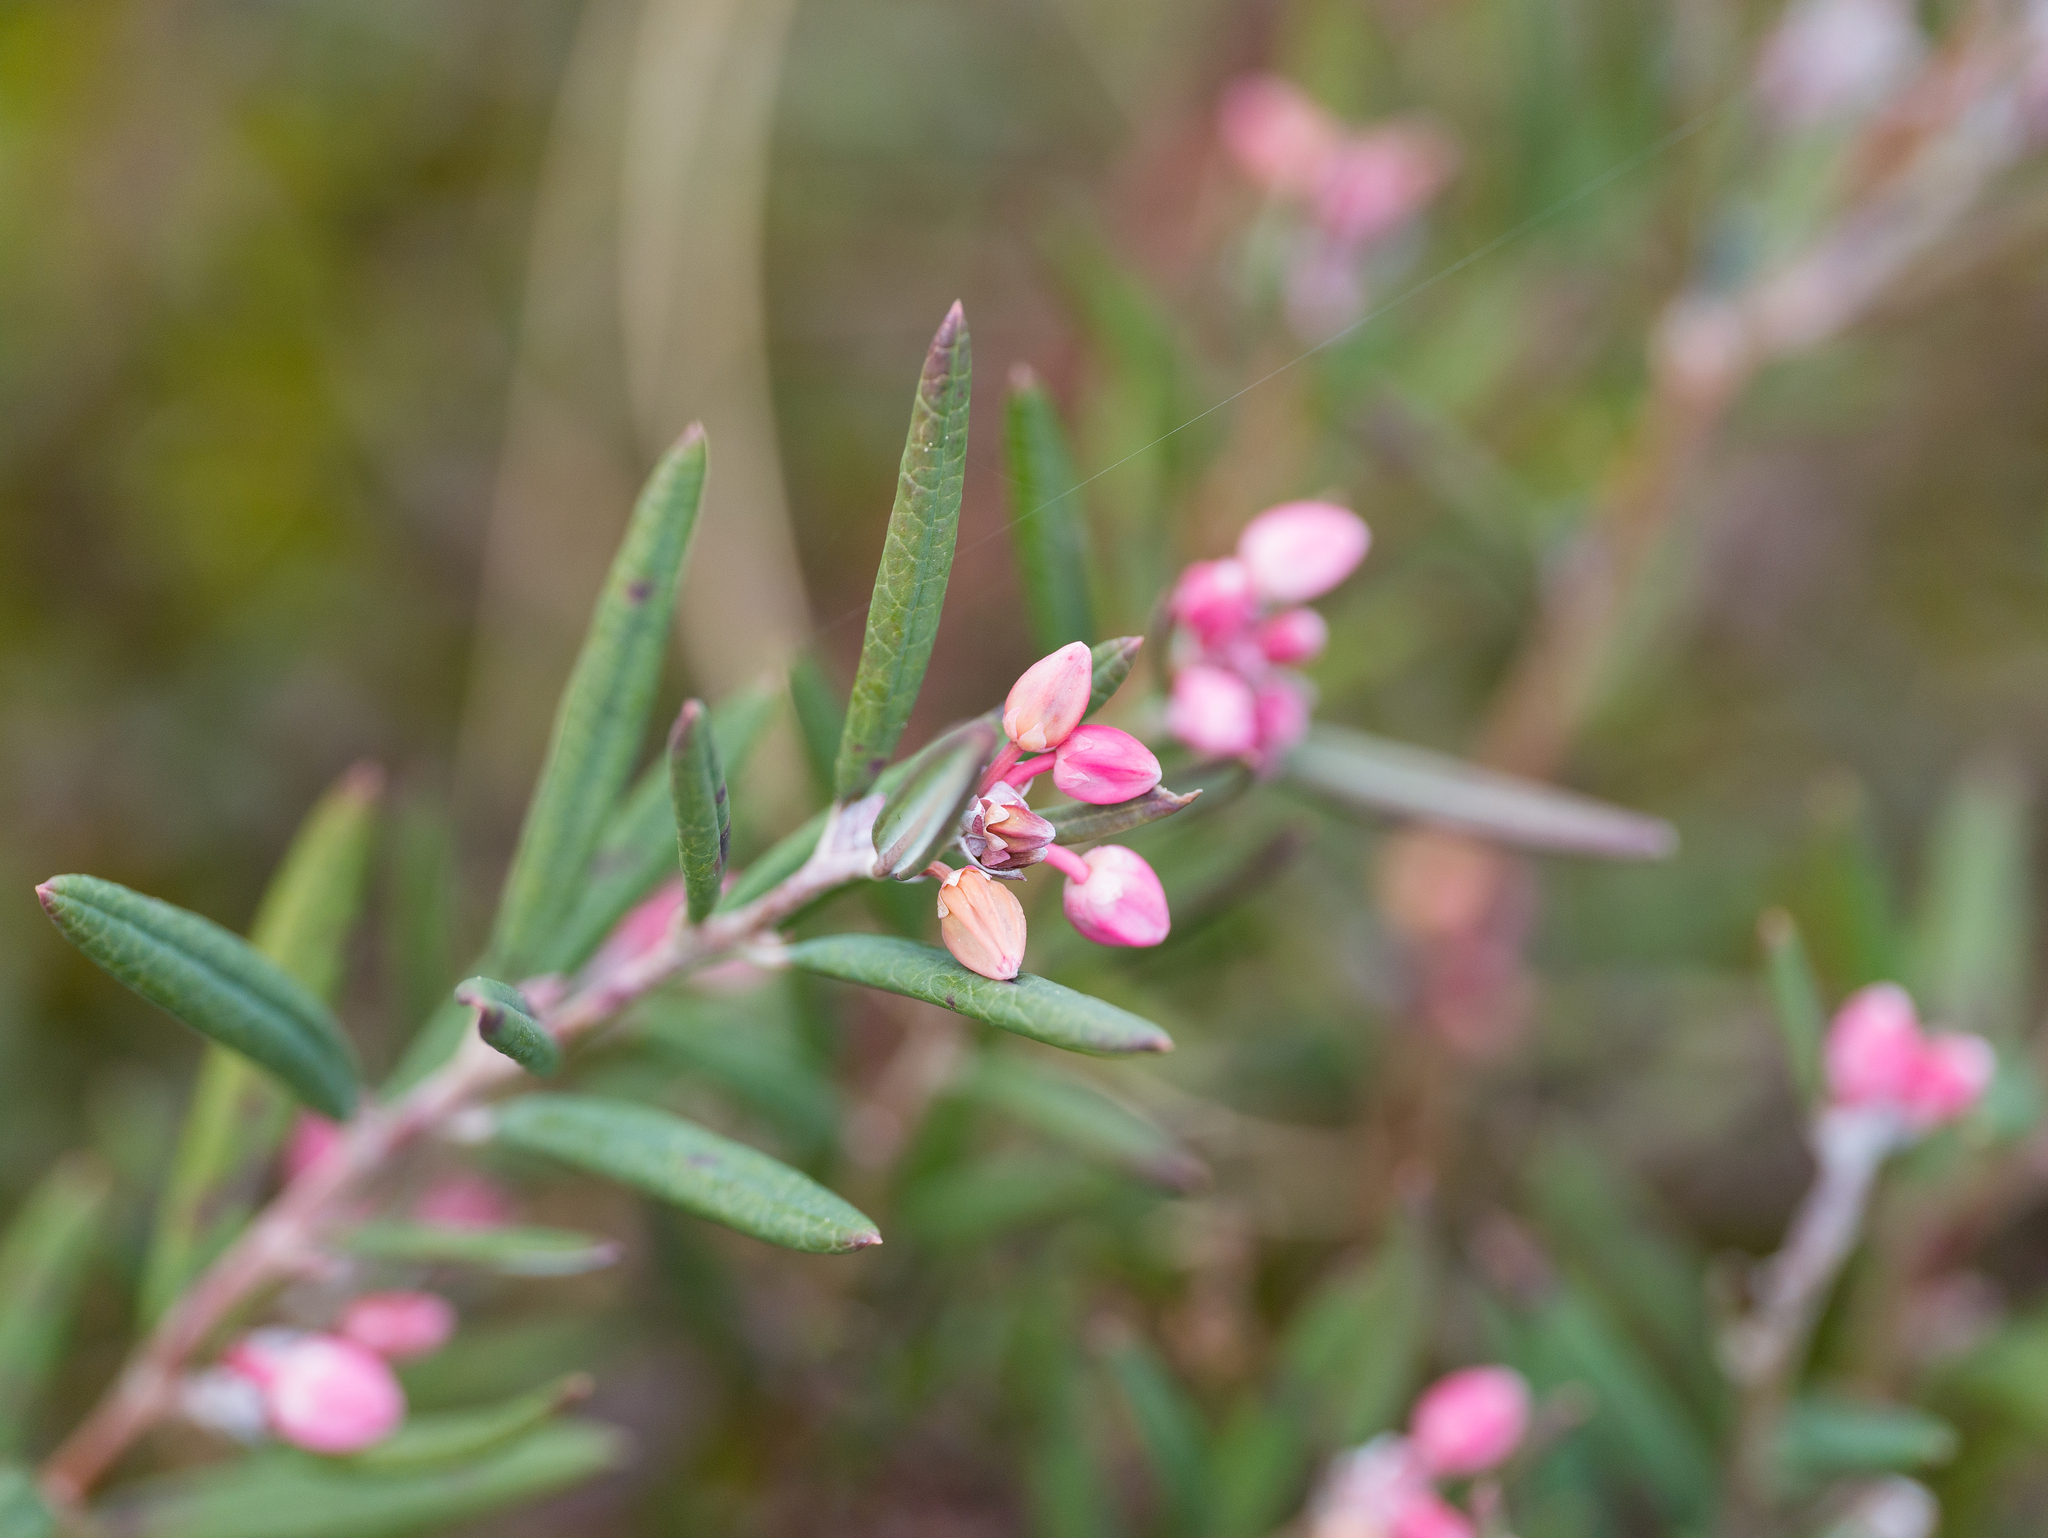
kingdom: Plantae
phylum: Tracheophyta
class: Magnoliopsida
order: Ericales
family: Ericaceae
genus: Andromeda
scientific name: Andromeda polifolia
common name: Bog-rosemary
